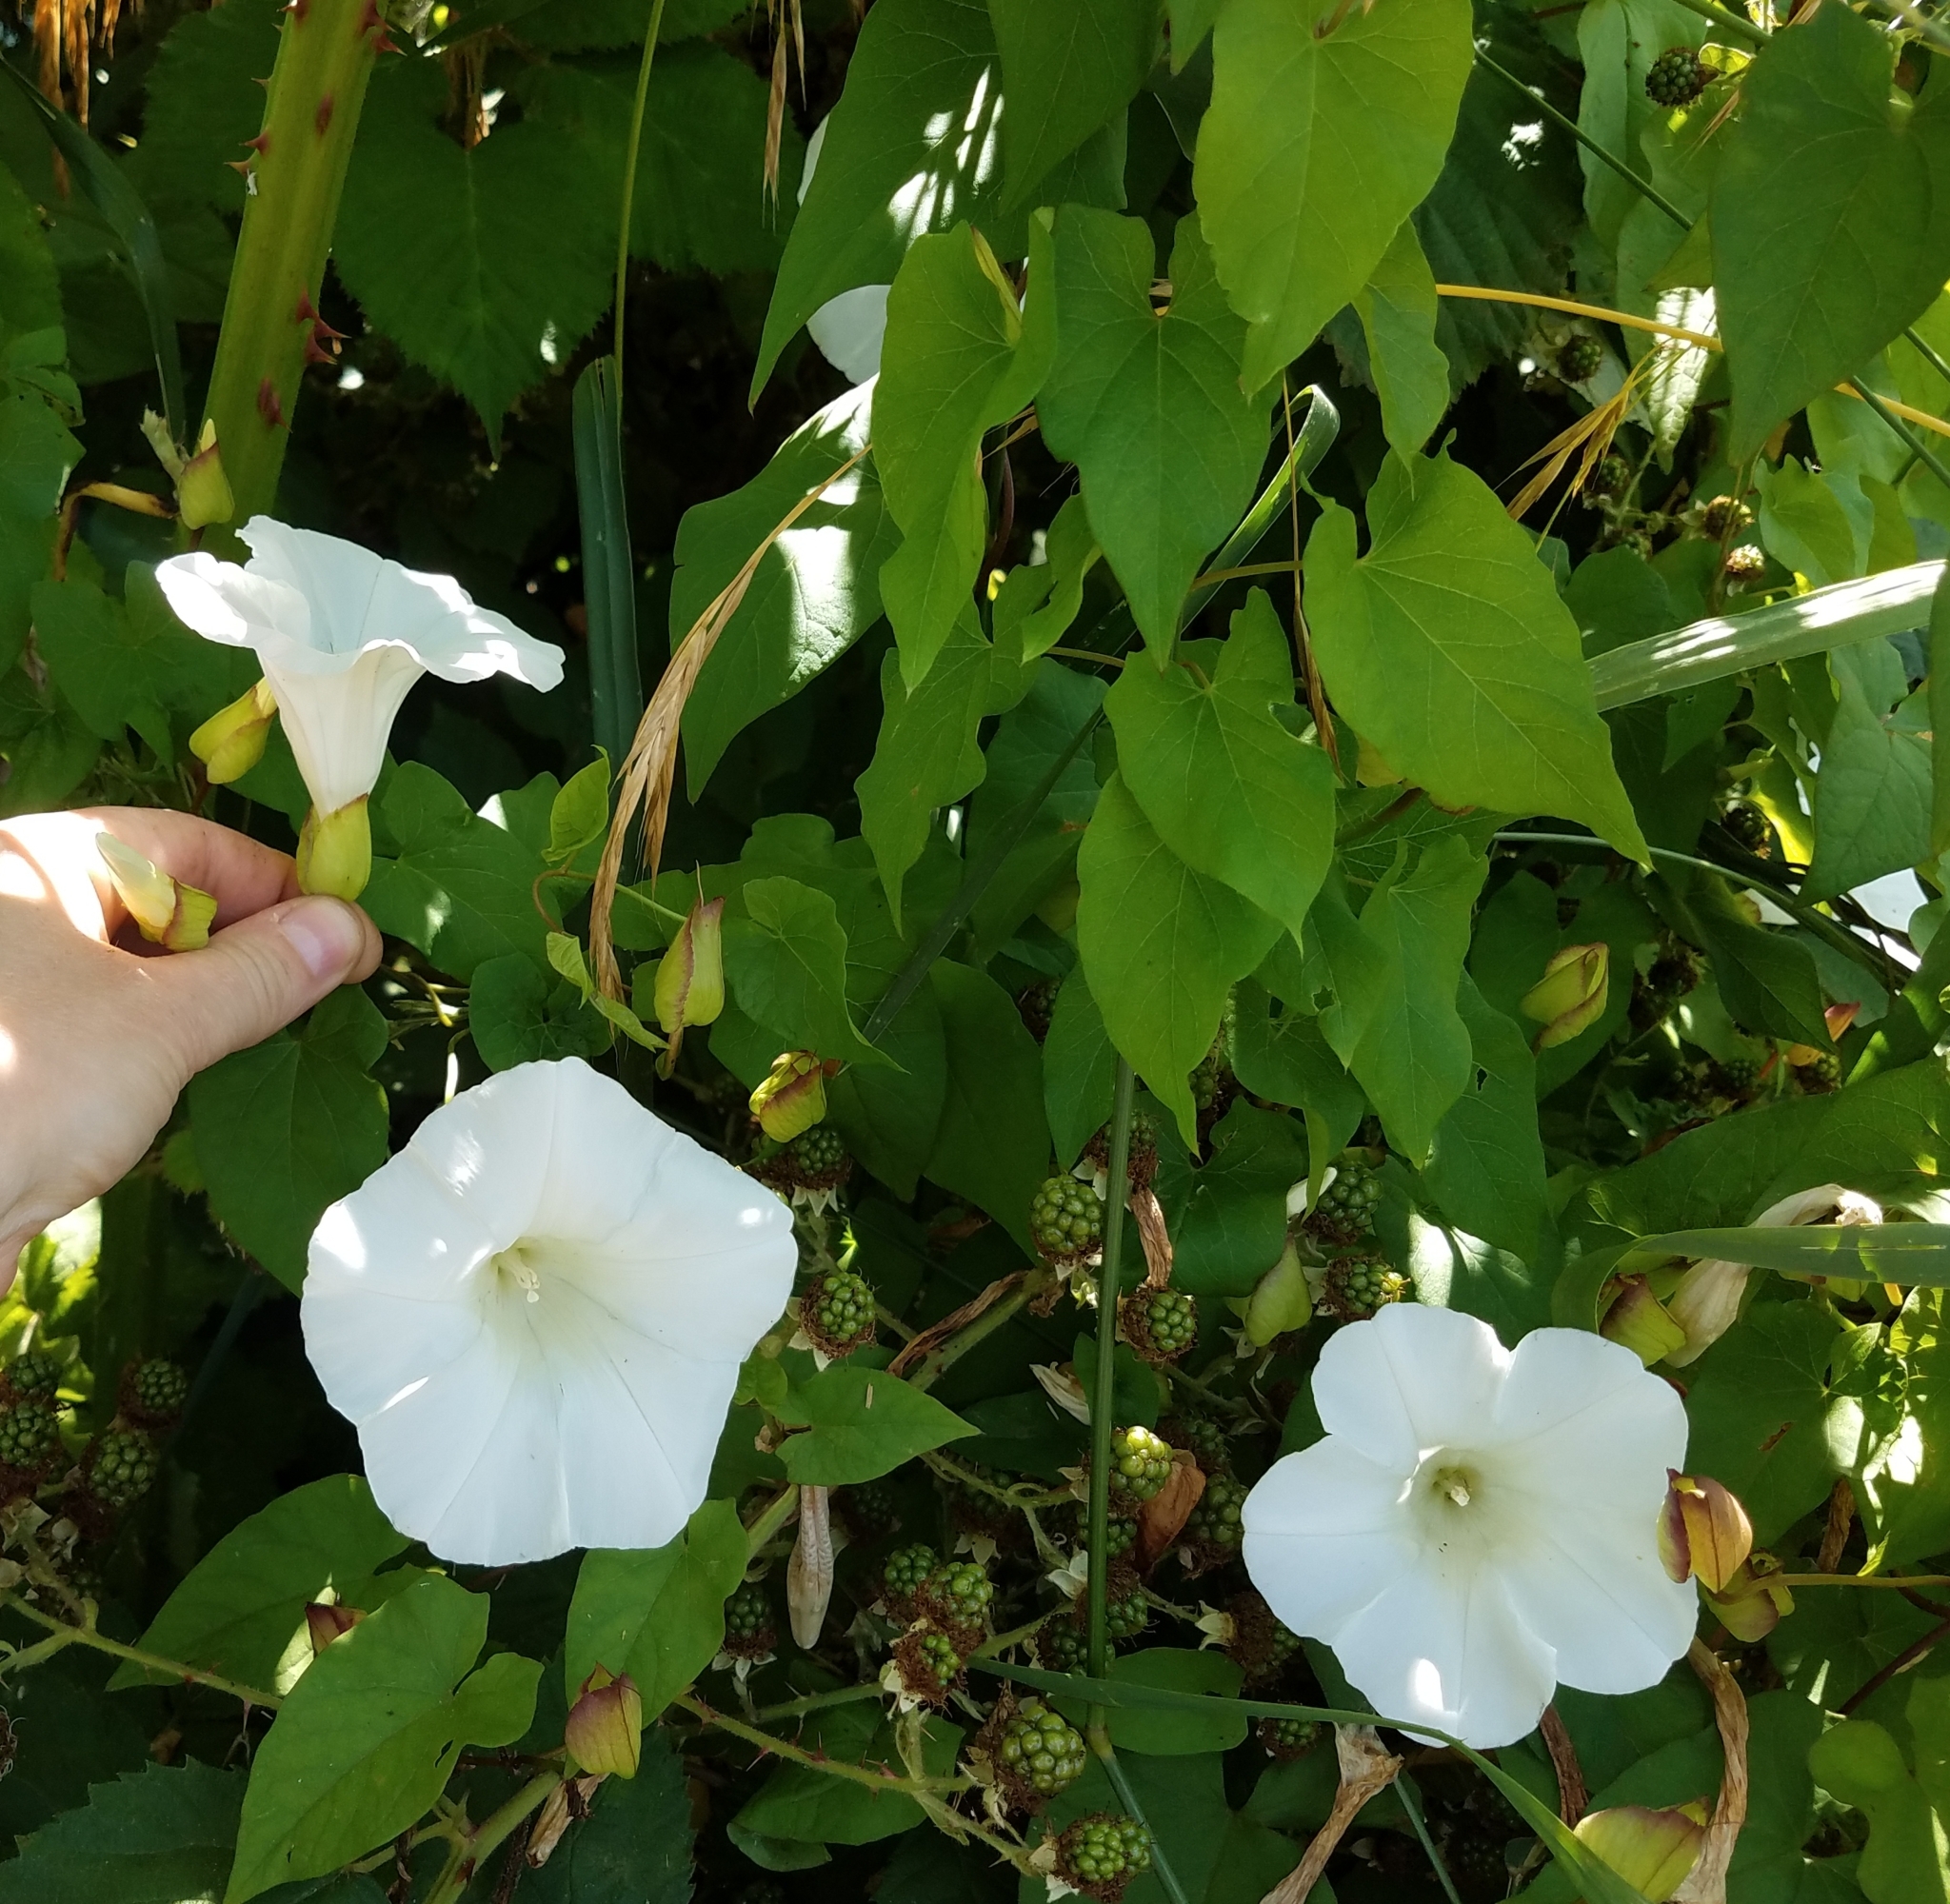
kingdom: Plantae
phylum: Tracheophyta
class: Magnoliopsida
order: Solanales
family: Convolvulaceae
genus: Calystegia
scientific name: Calystegia sepium
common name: Hedge bindweed
